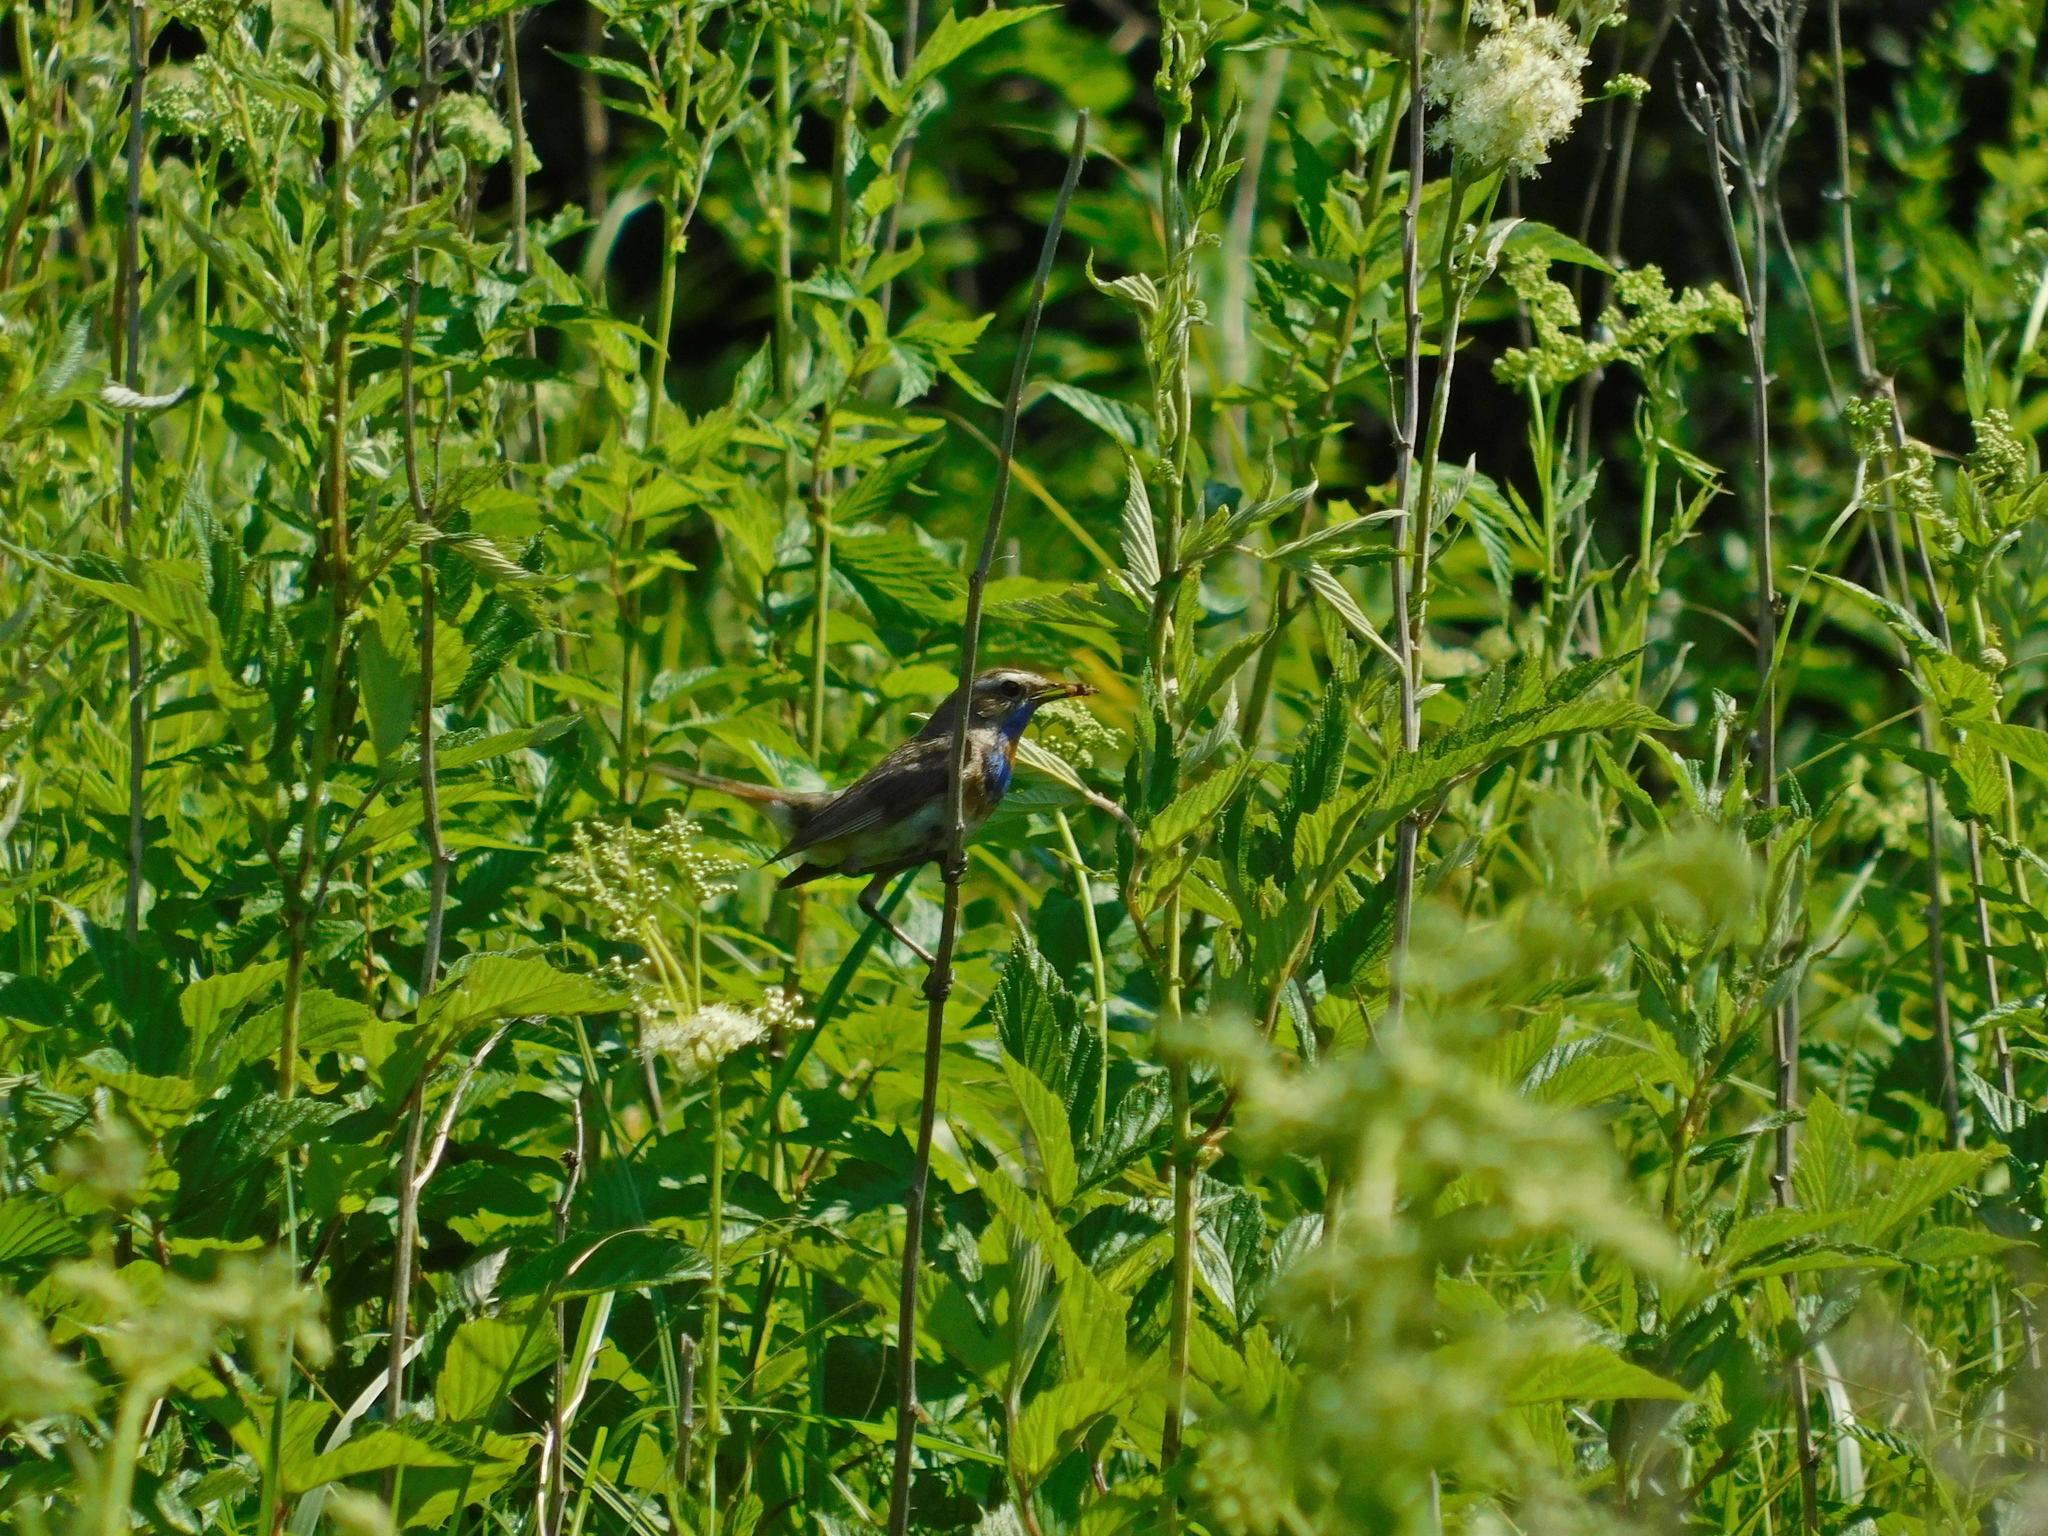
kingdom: Animalia
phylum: Chordata
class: Aves
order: Passeriformes
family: Muscicapidae
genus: Luscinia
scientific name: Luscinia svecica
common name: Bluethroat
